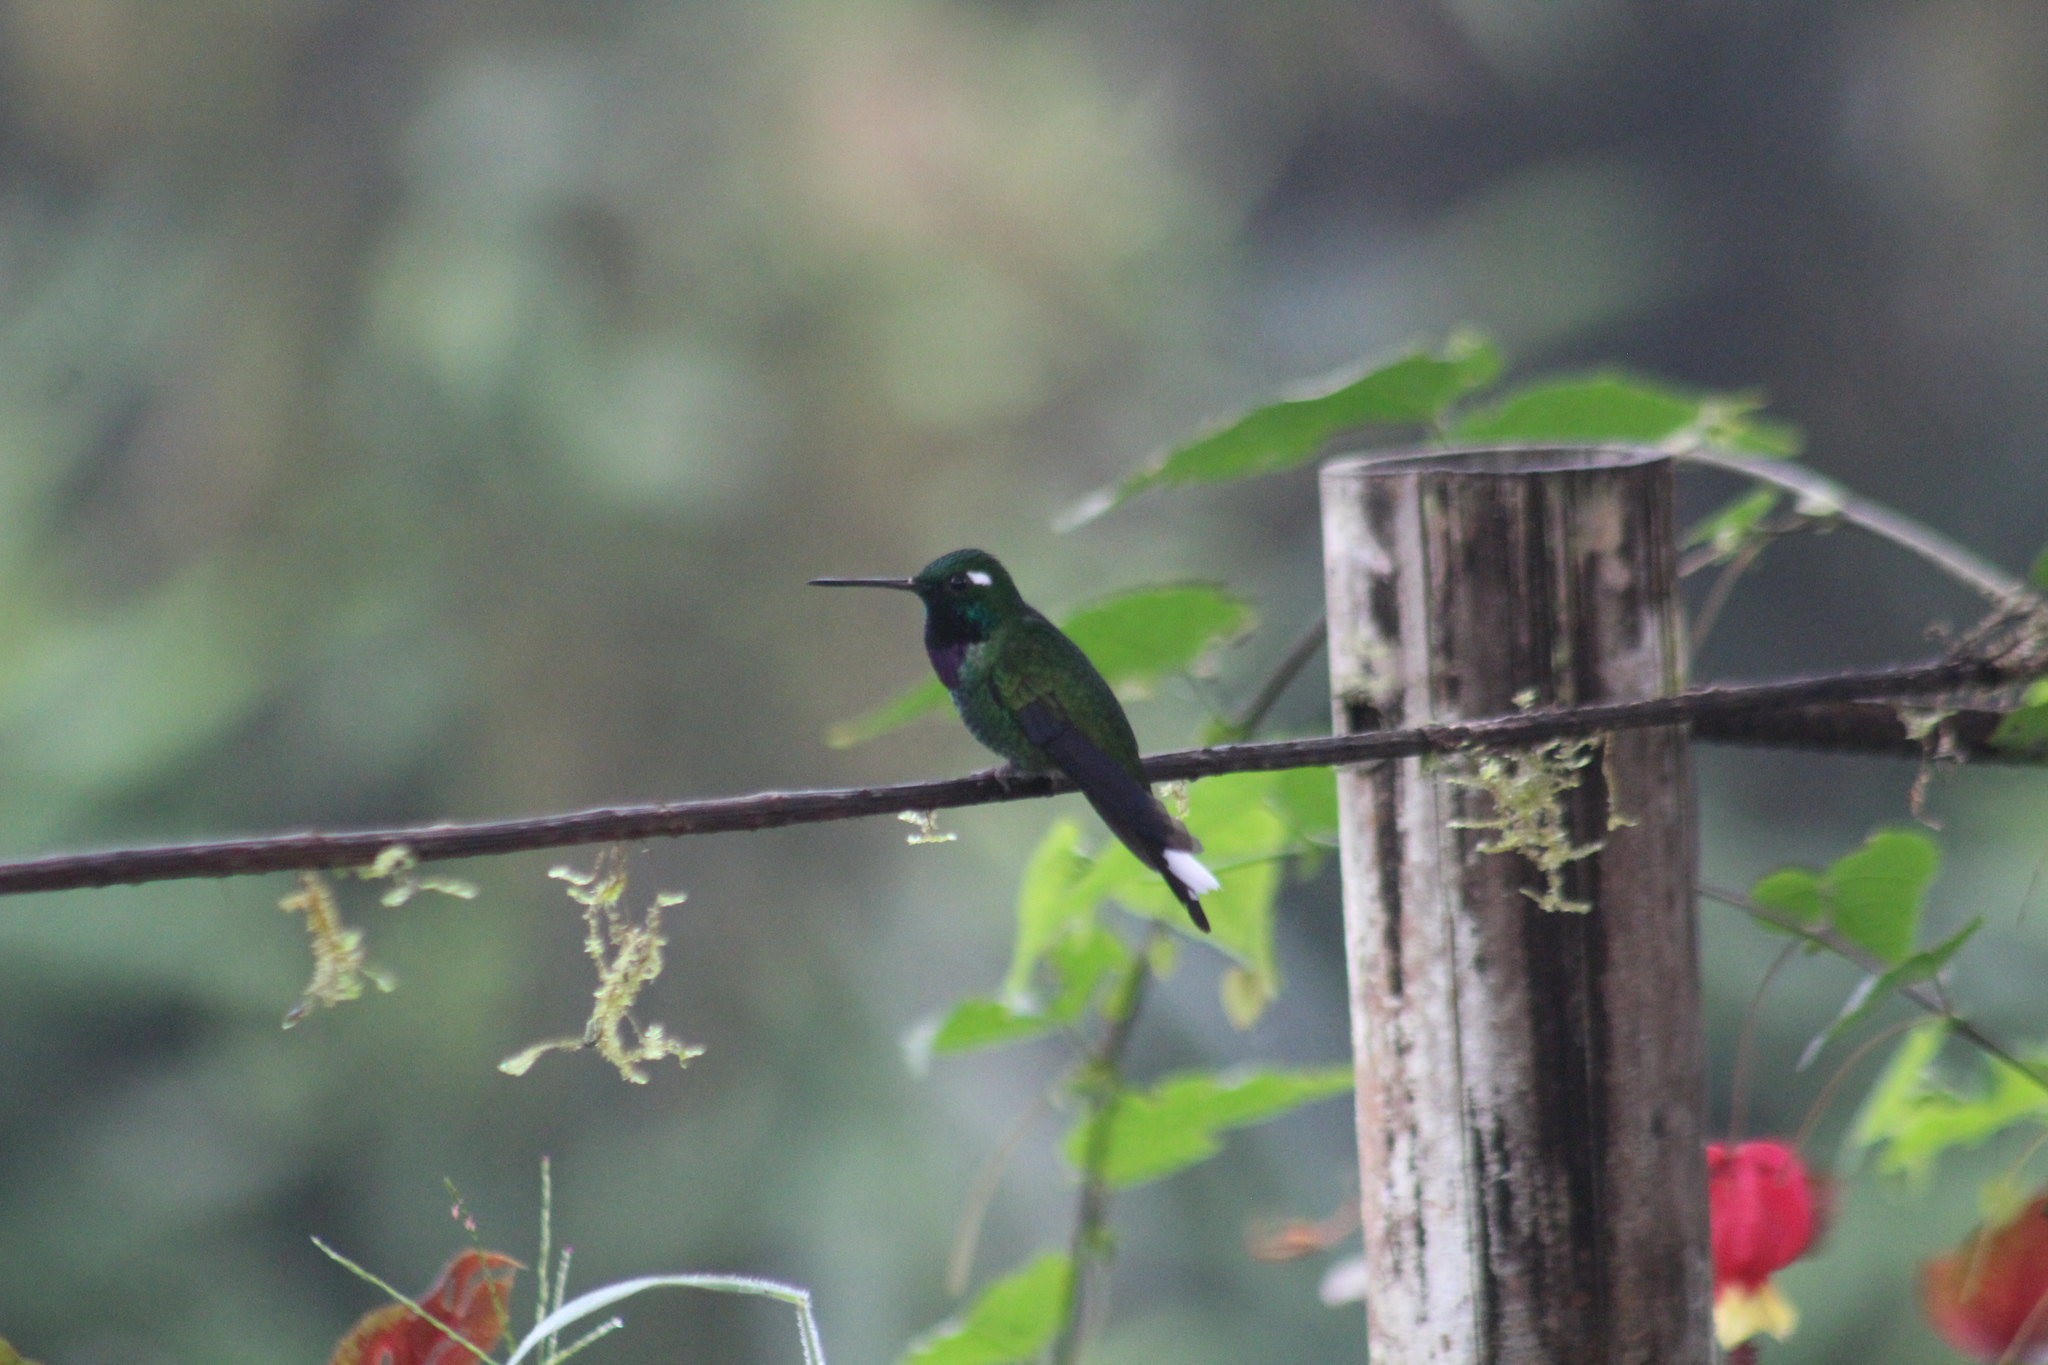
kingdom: Animalia
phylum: Chordata
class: Aves
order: Apodiformes
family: Trochilidae
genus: Urosticte
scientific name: Urosticte benjamini
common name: Purple-bibbed whitetip
